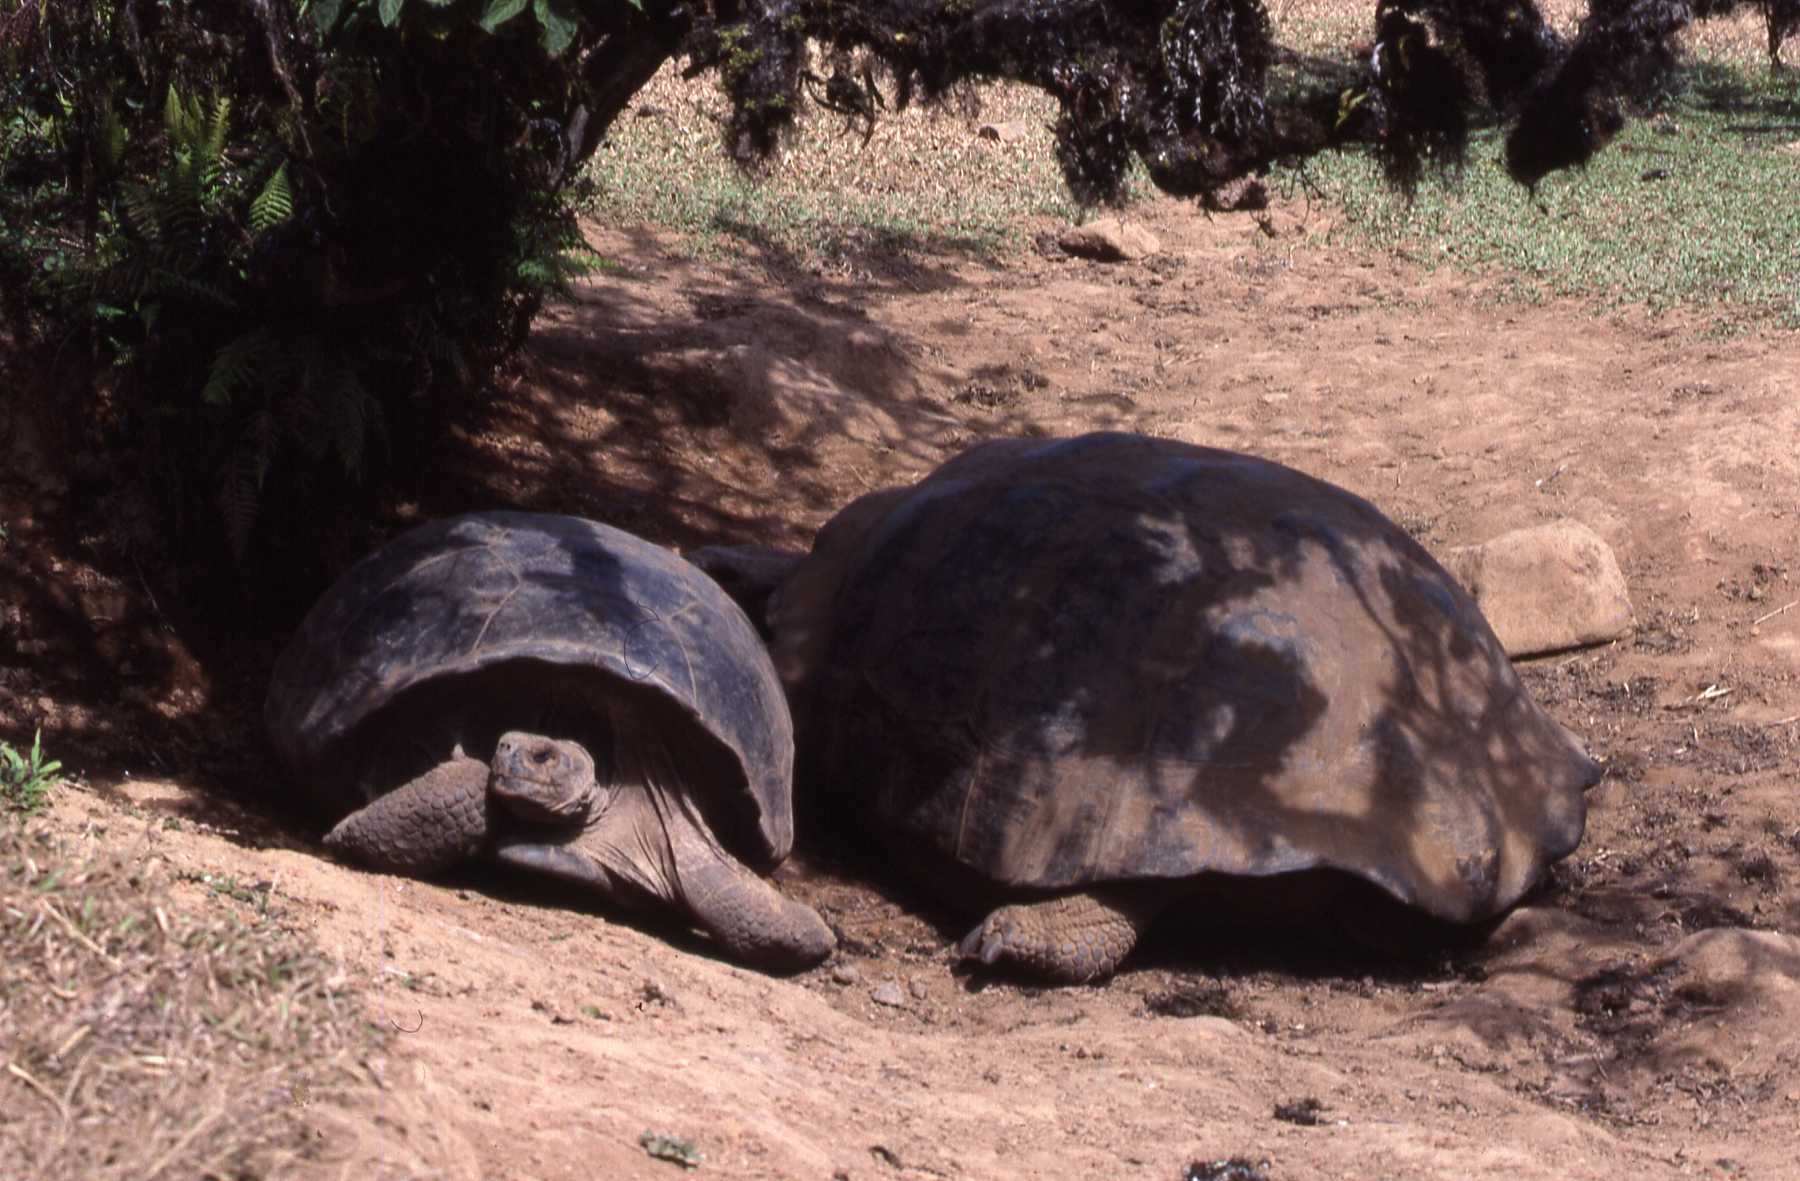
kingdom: Animalia
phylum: Chordata
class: Testudines
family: Testudinidae
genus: Chelonoidis
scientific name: Chelonoidis vandenburghi
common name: Alcedo volcano giant tortoise
